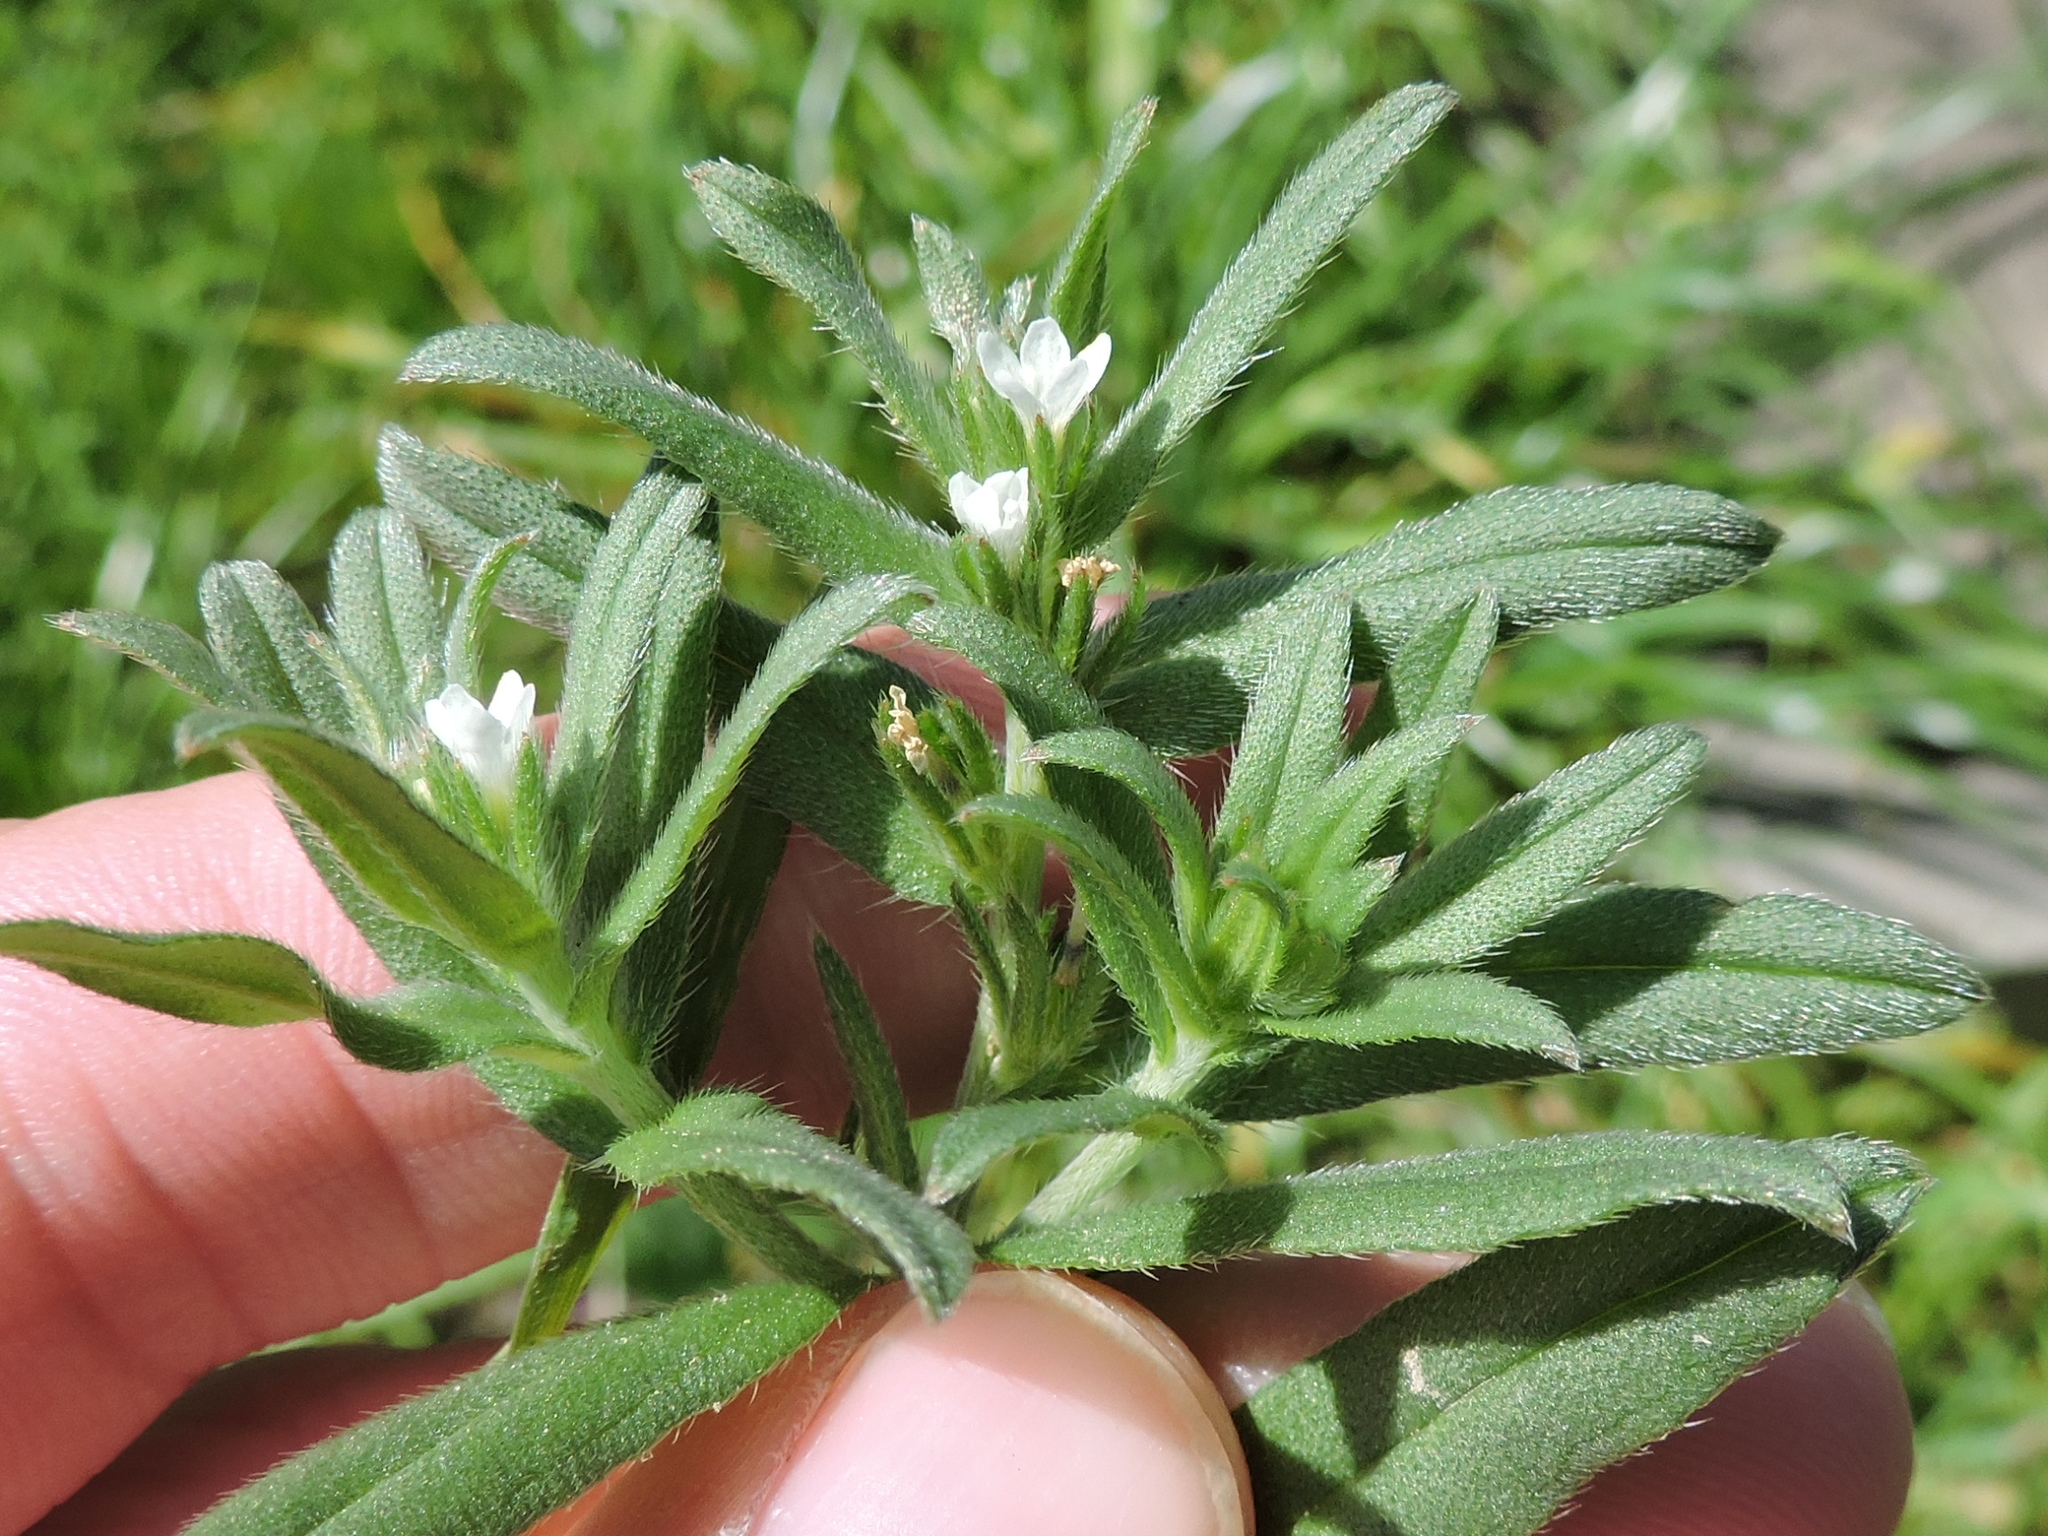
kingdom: Plantae
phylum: Tracheophyta
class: Magnoliopsida
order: Boraginales
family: Boraginaceae
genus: Buglossoides
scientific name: Buglossoides arvensis
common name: Corn gromwell
